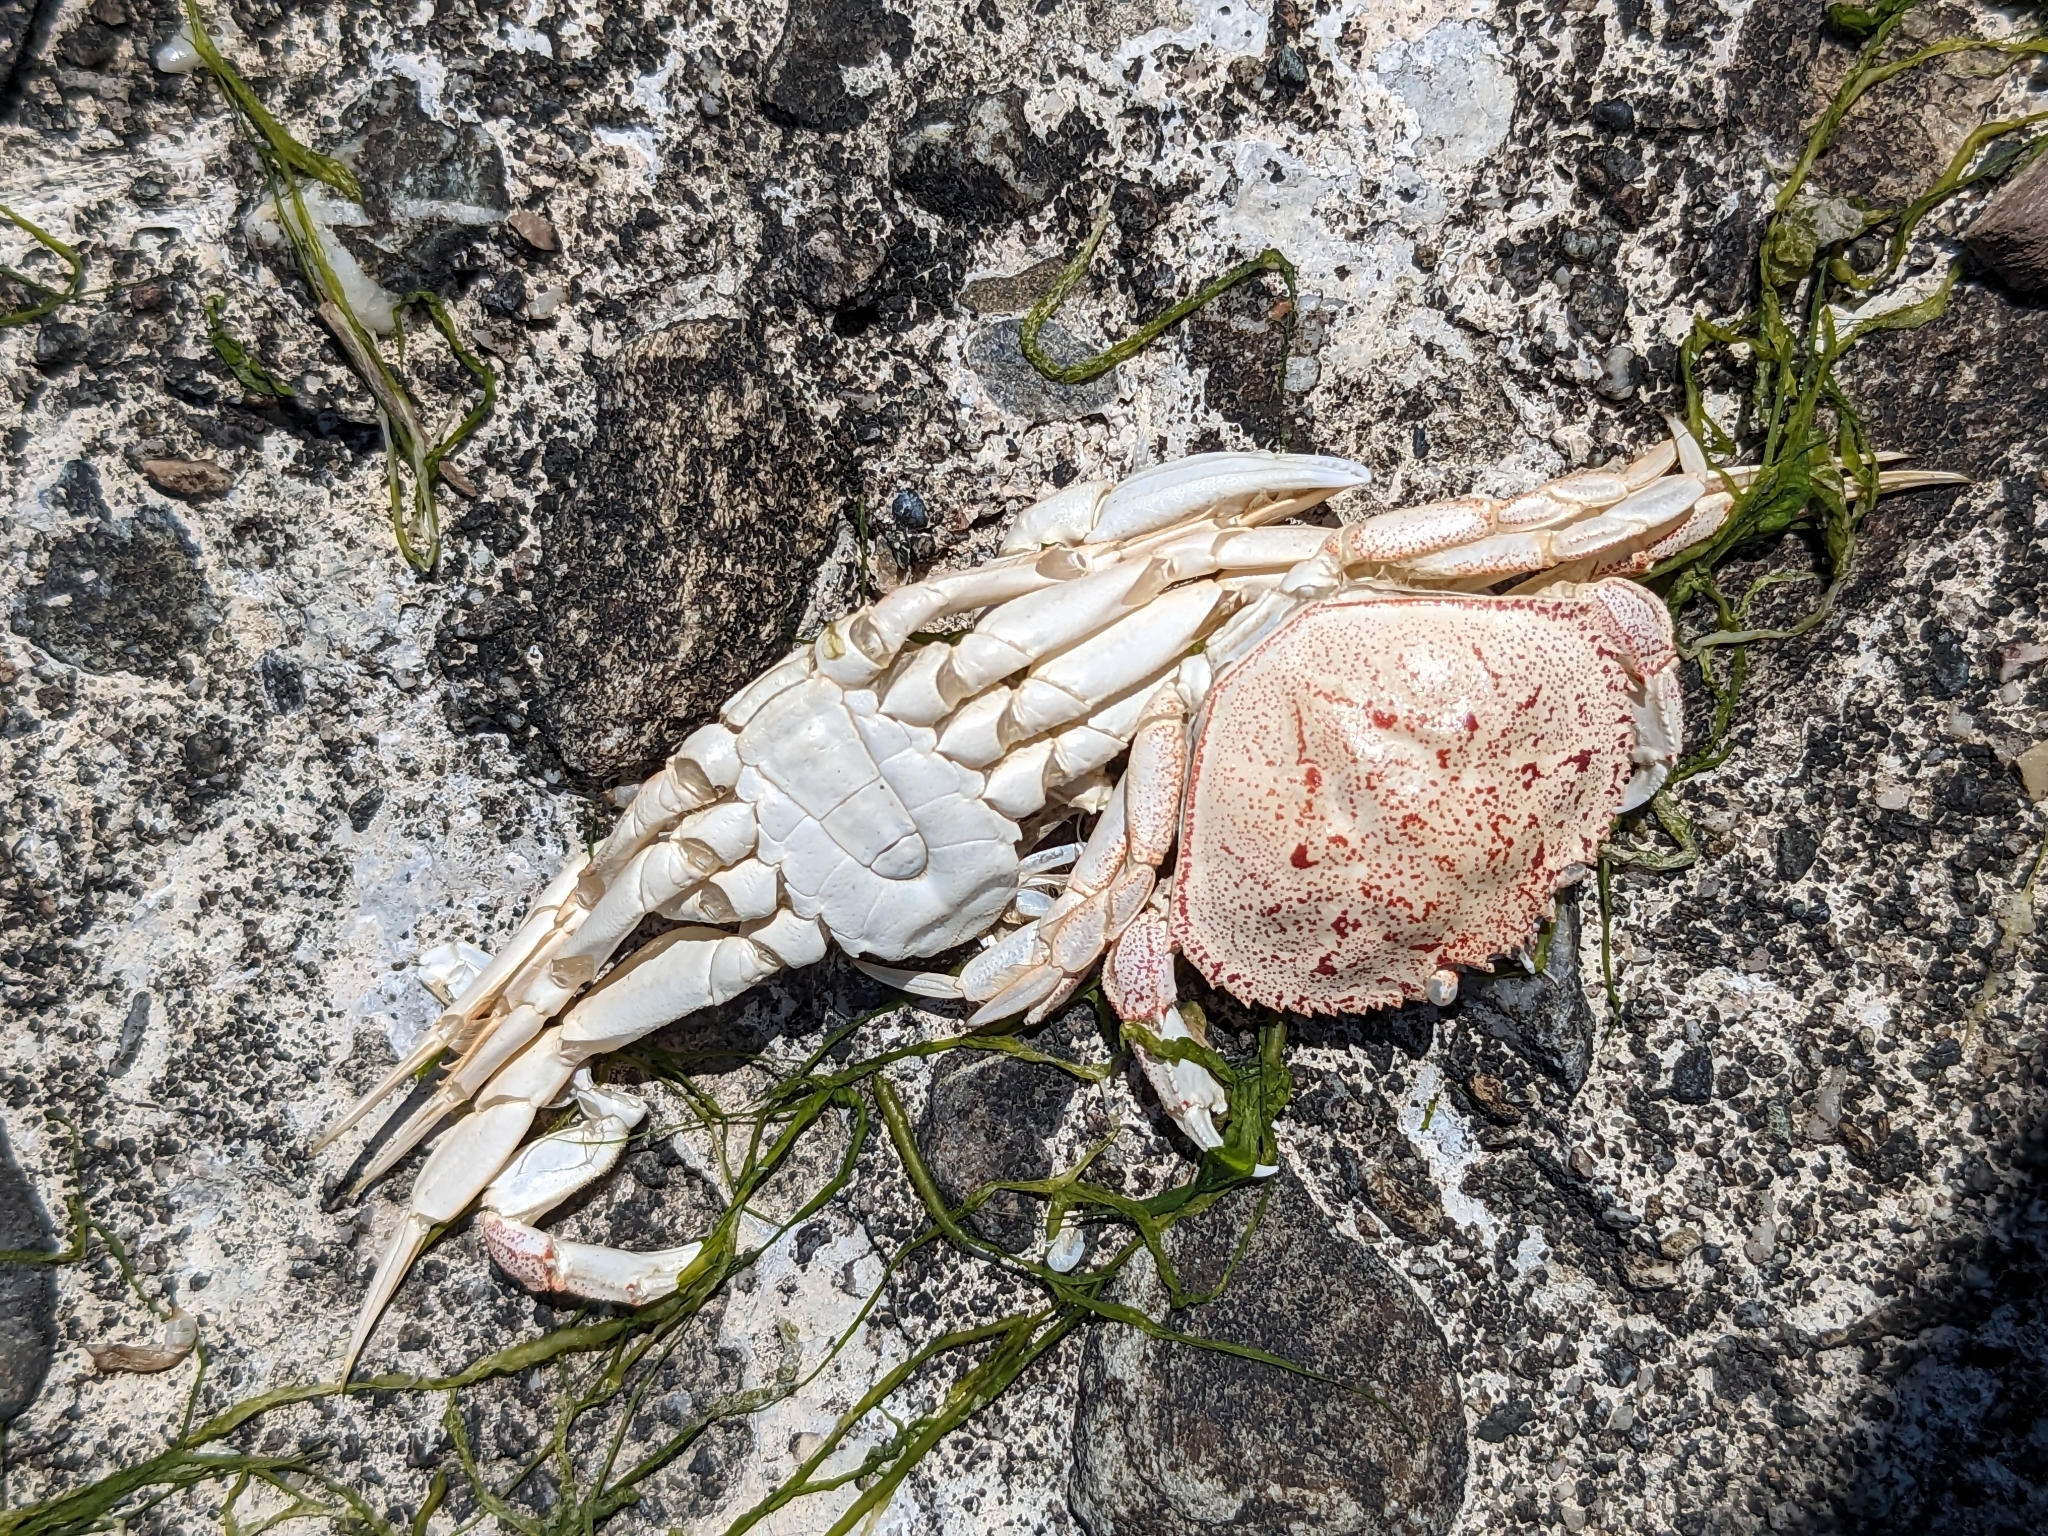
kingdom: Animalia
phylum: Arthropoda
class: Malacostraca
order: Decapoda
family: Cancridae
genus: Metacarcinus
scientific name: Metacarcinus magister
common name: Californian crab
